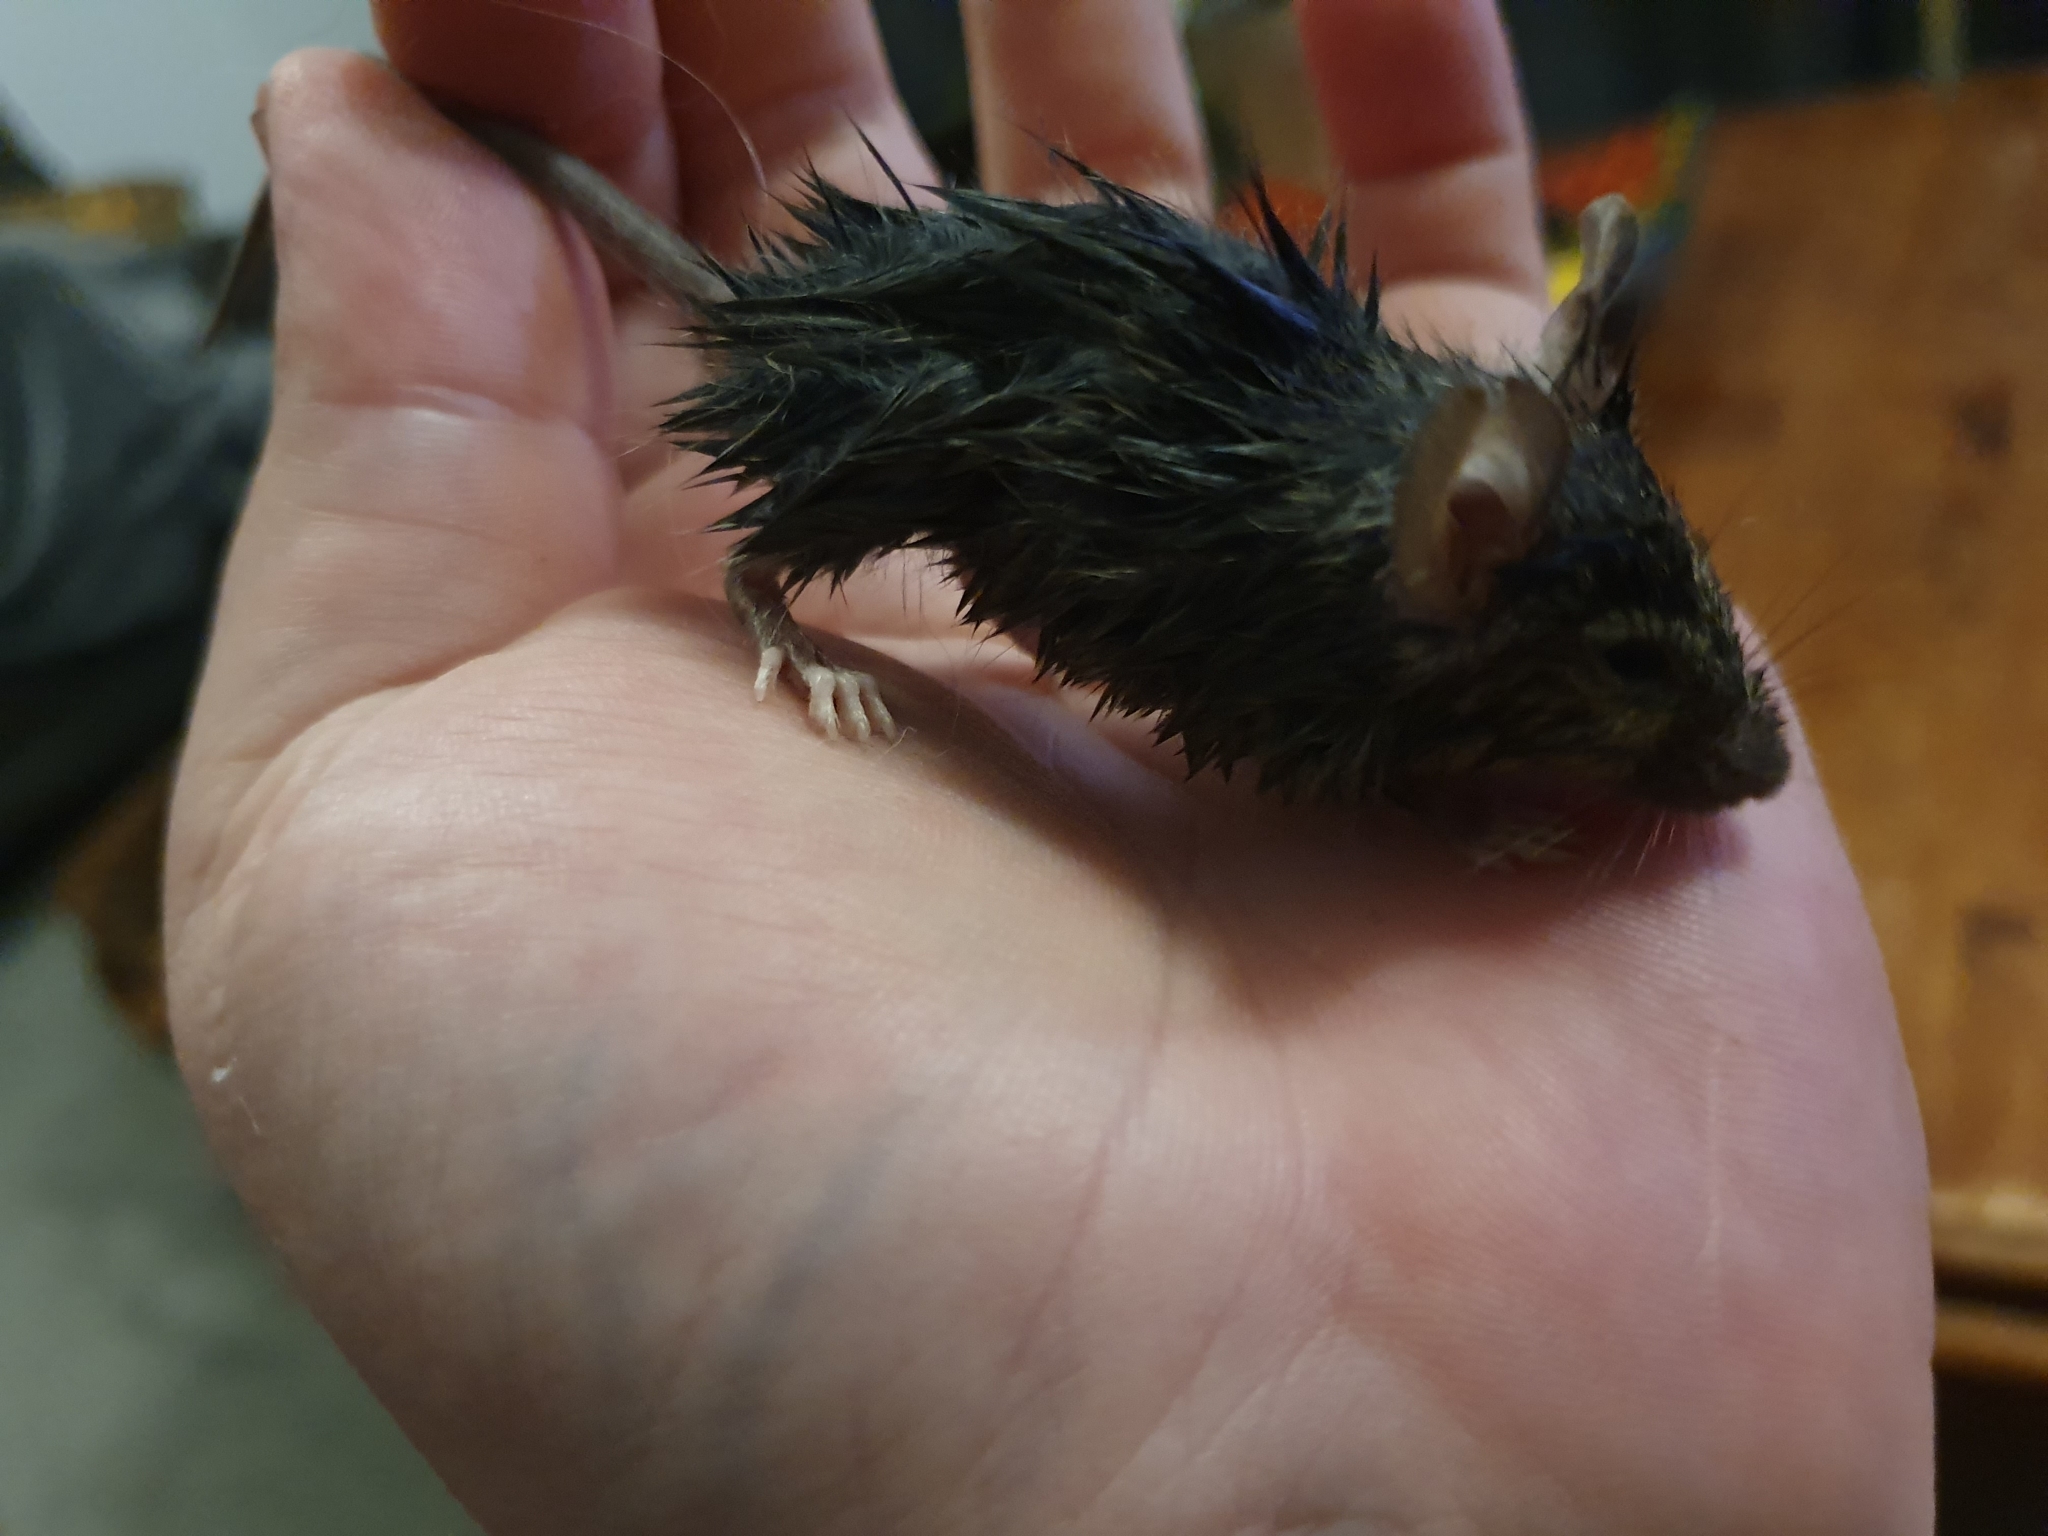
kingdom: Animalia
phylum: Chordata
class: Mammalia
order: Rodentia
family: Muridae
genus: Rattus
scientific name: Rattus rattus
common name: Black rat
